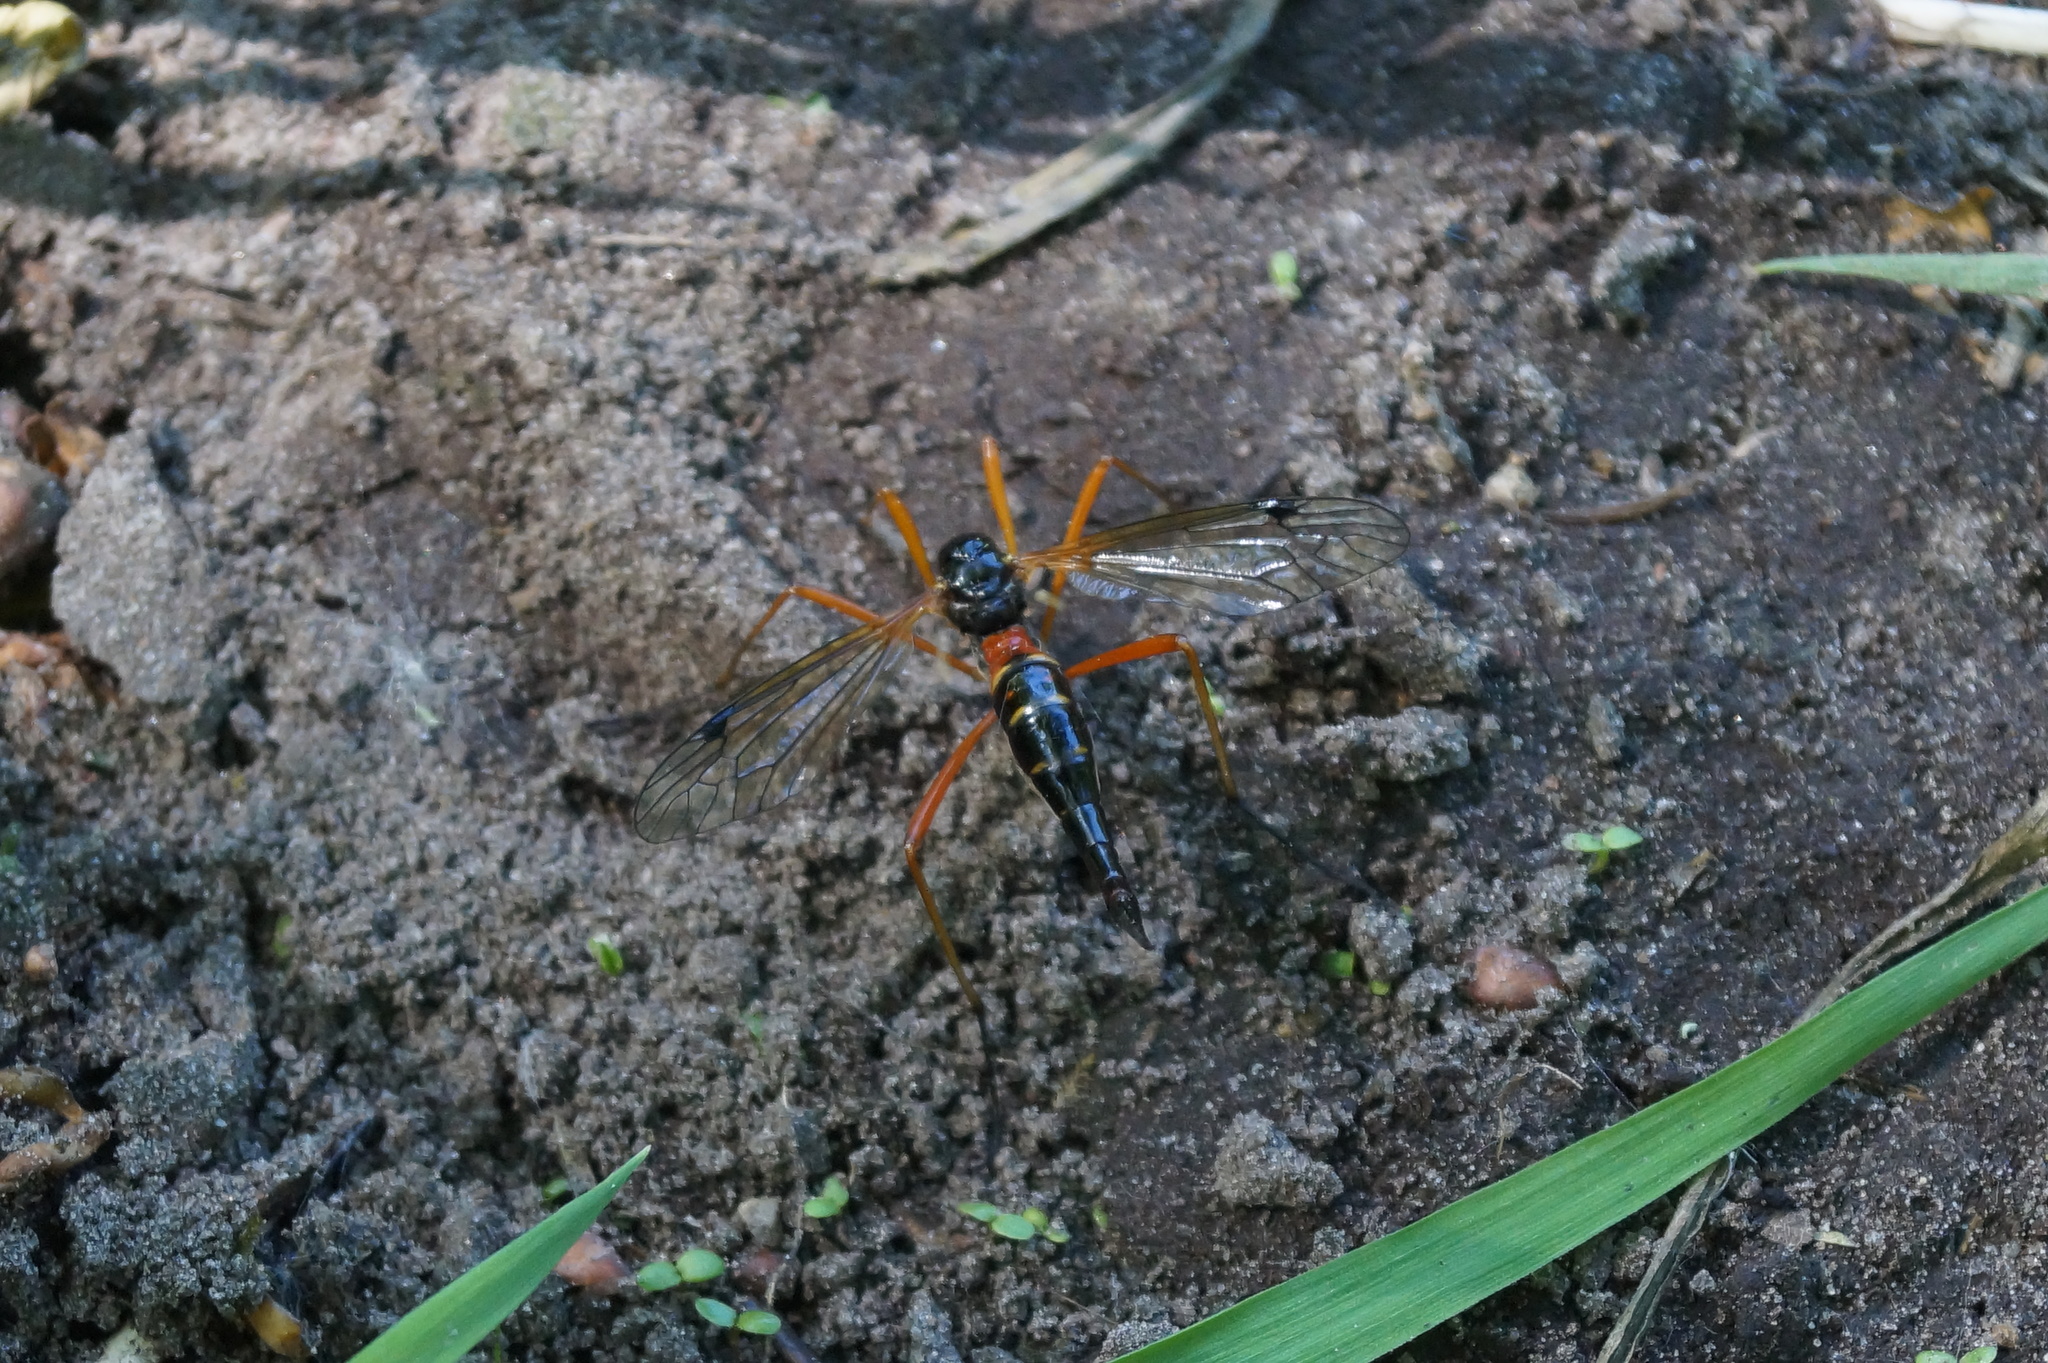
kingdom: Animalia
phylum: Arthropoda
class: Insecta
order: Diptera
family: Tipulidae
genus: Tanyptera
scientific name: Tanyptera atrata
